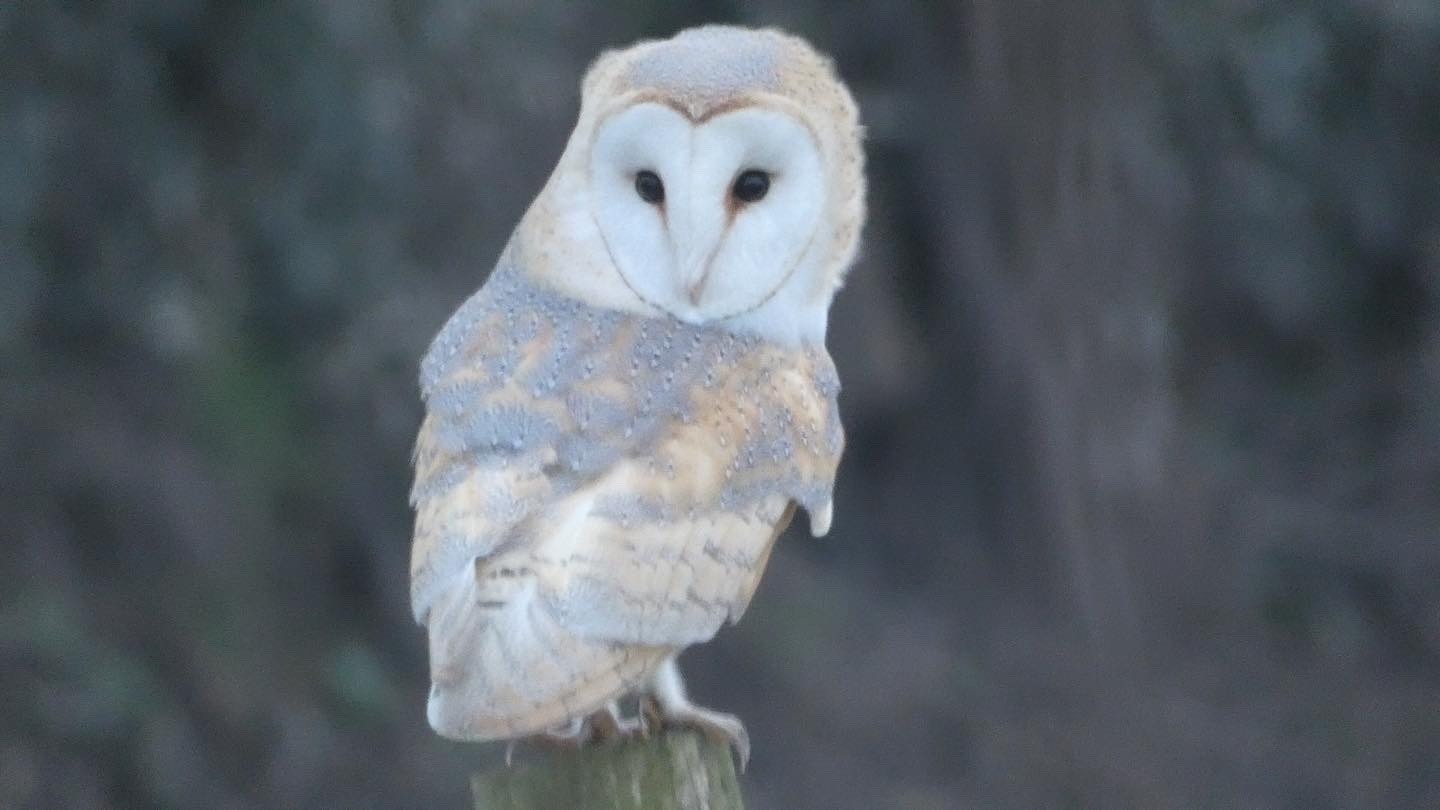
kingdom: Animalia
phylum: Chordata
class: Aves
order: Strigiformes
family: Tytonidae
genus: Tyto
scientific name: Tyto alba
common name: Barn owl
